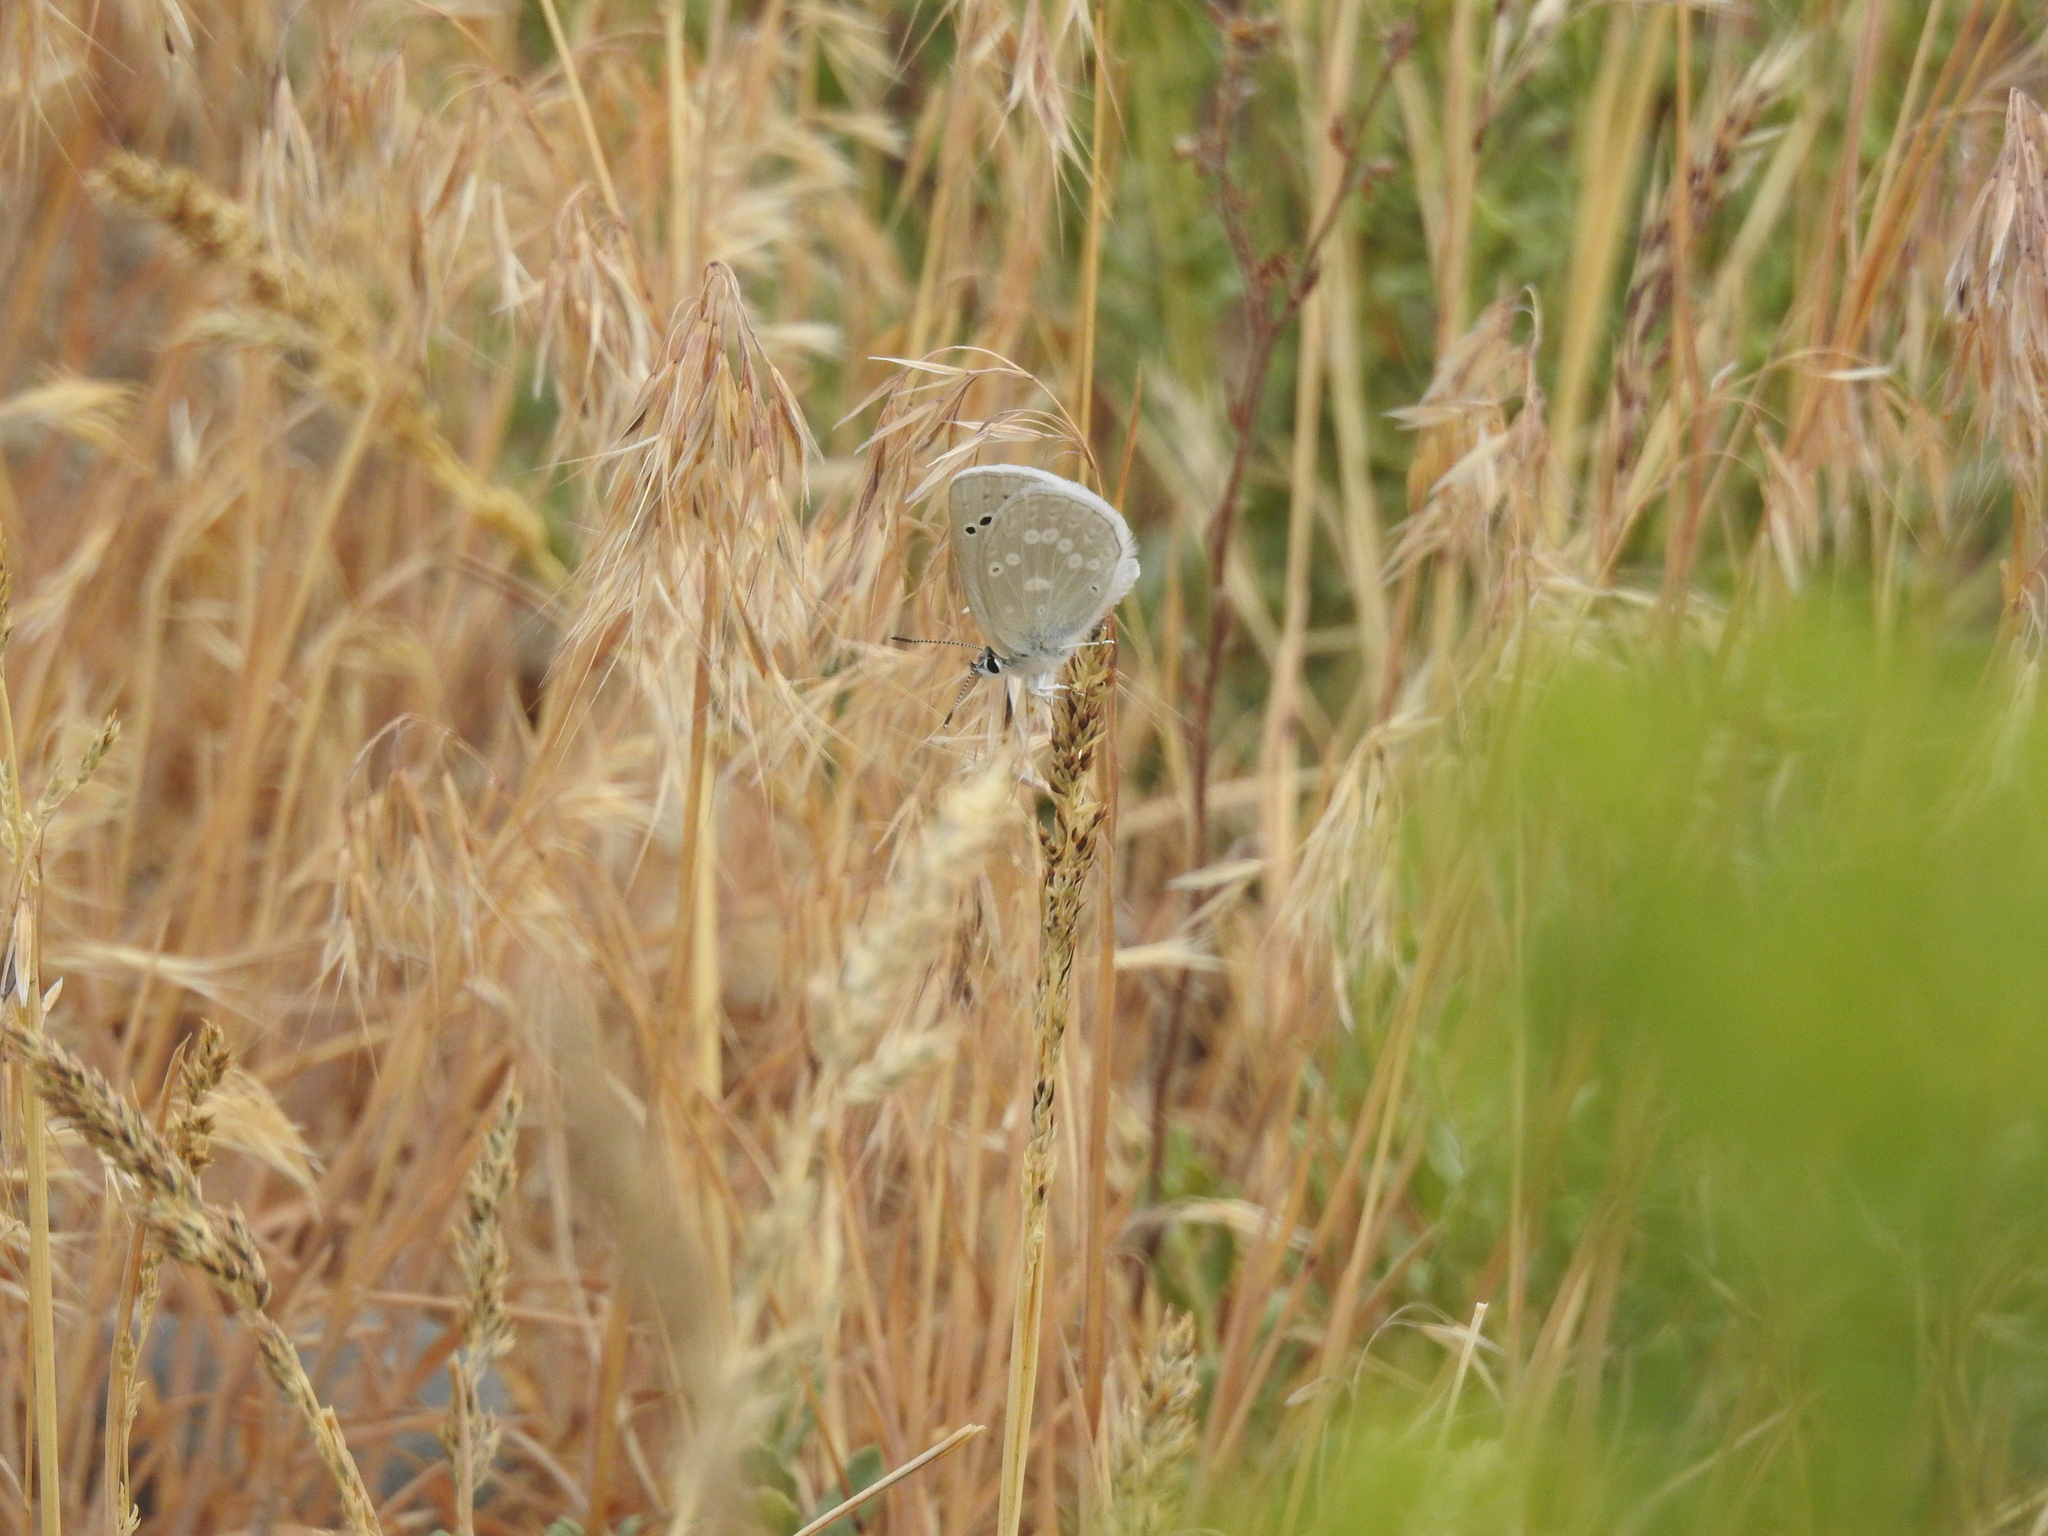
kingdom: Animalia
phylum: Arthropoda
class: Insecta
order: Lepidoptera
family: Lycaenidae
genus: Icaricia
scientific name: Icaricia icarioides
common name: Boisduval's blue
